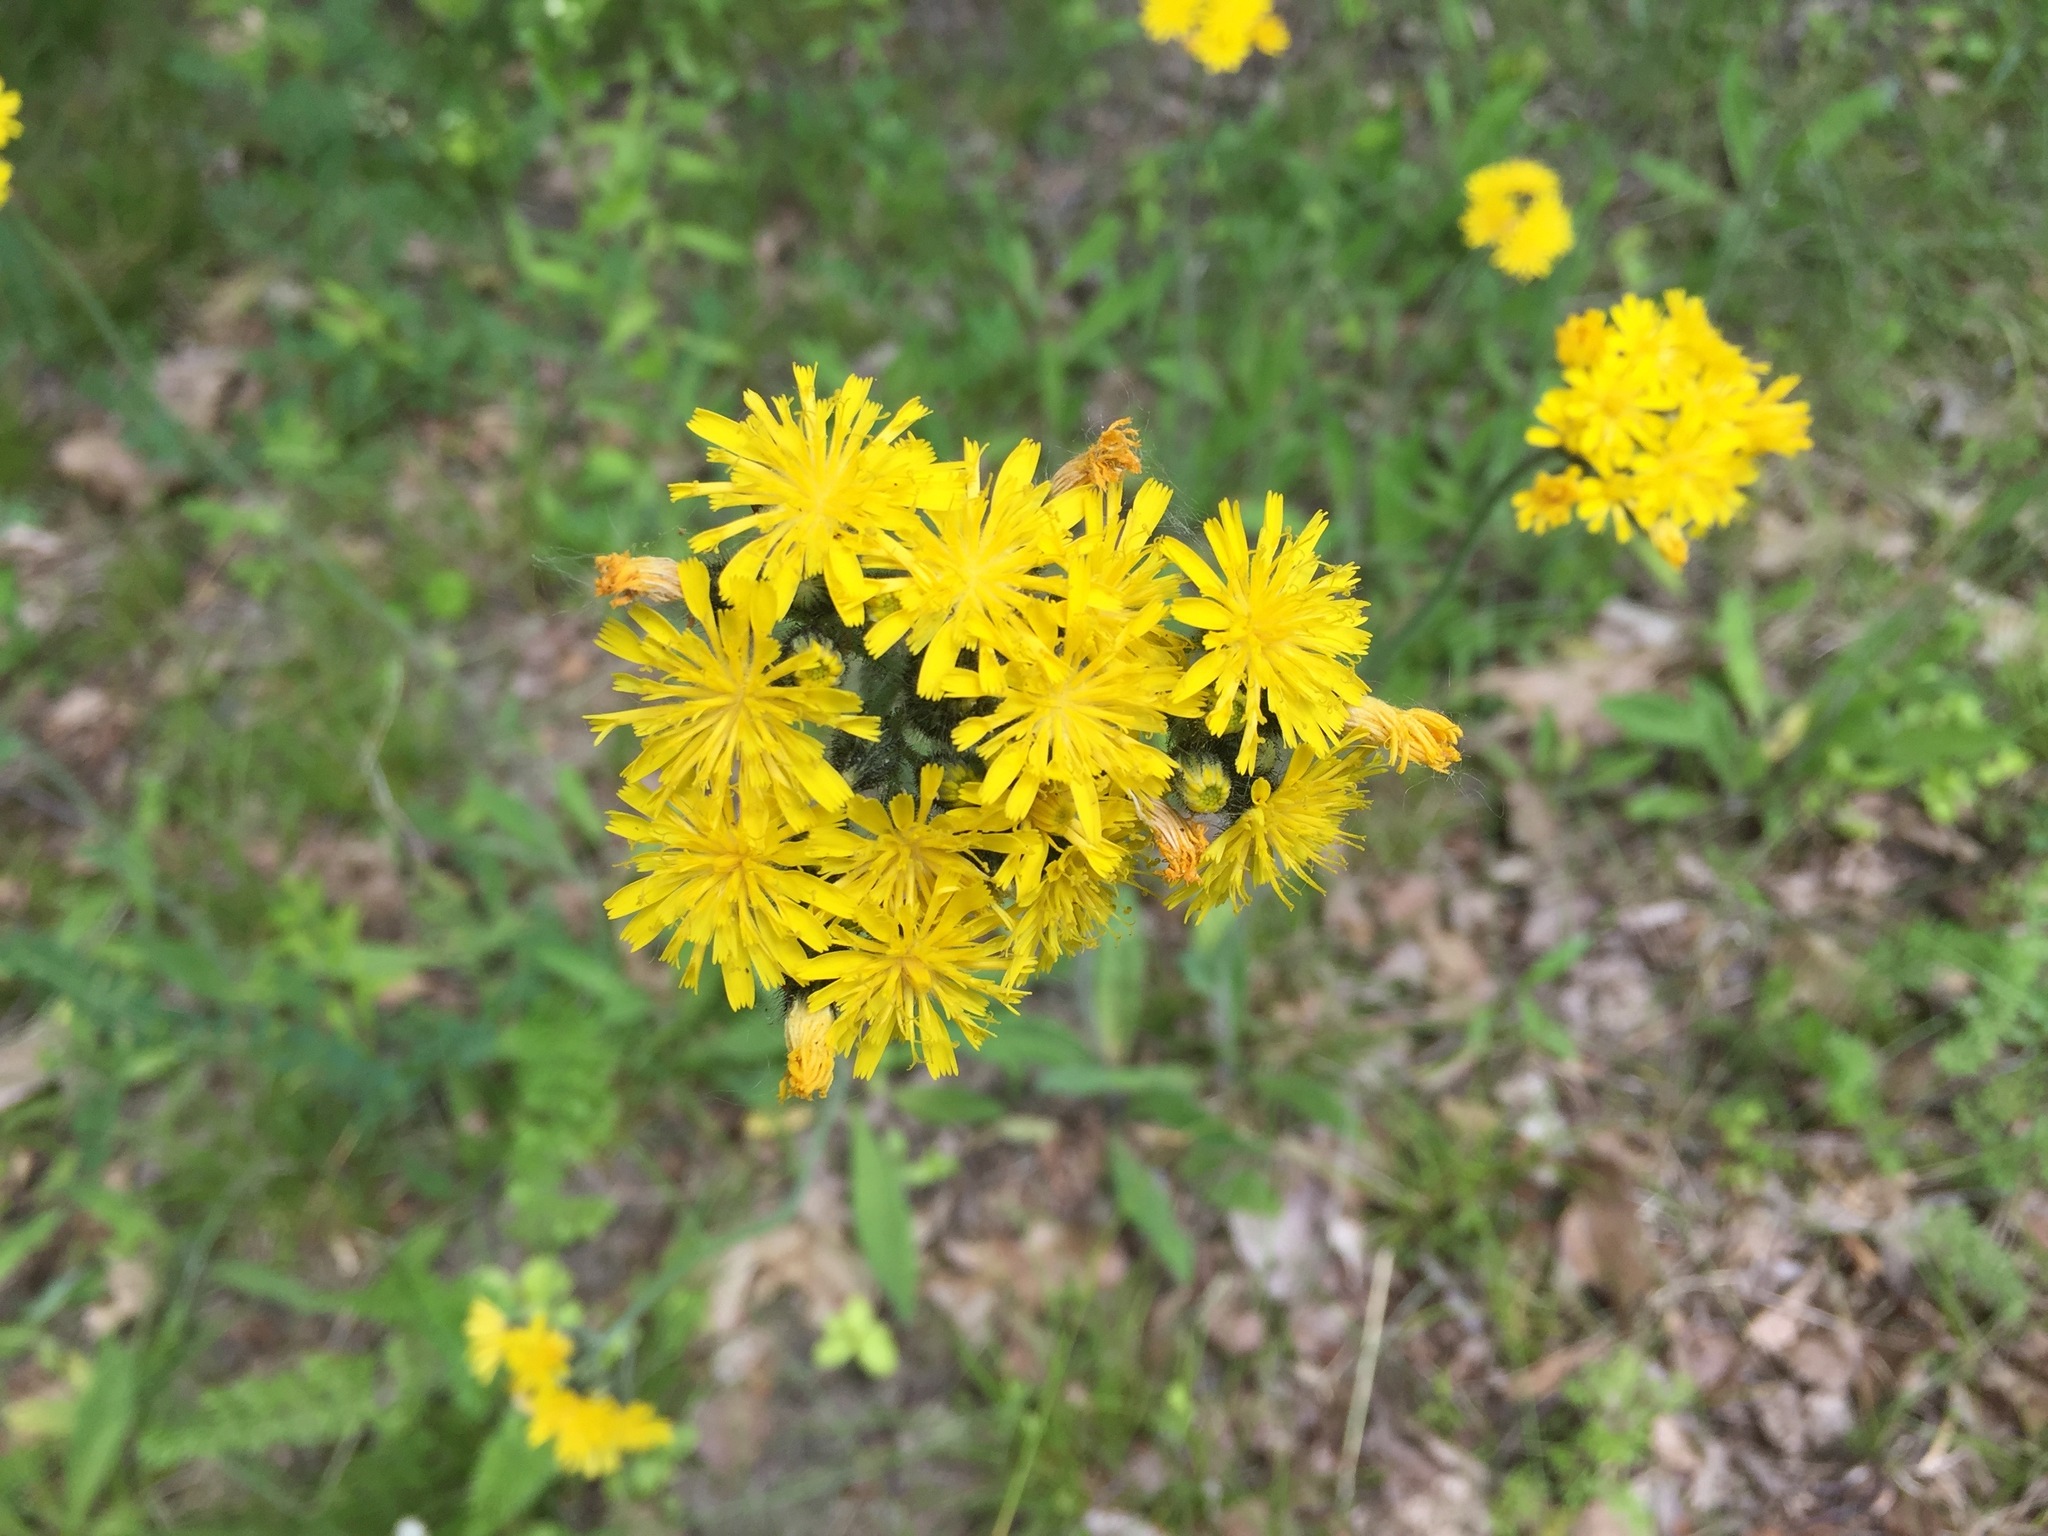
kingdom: Plantae
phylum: Tracheophyta
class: Magnoliopsida
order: Asterales
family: Asteraceae
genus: Pilosella
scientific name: Pilosella caespitosa
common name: Yellow fox-and-cubs
